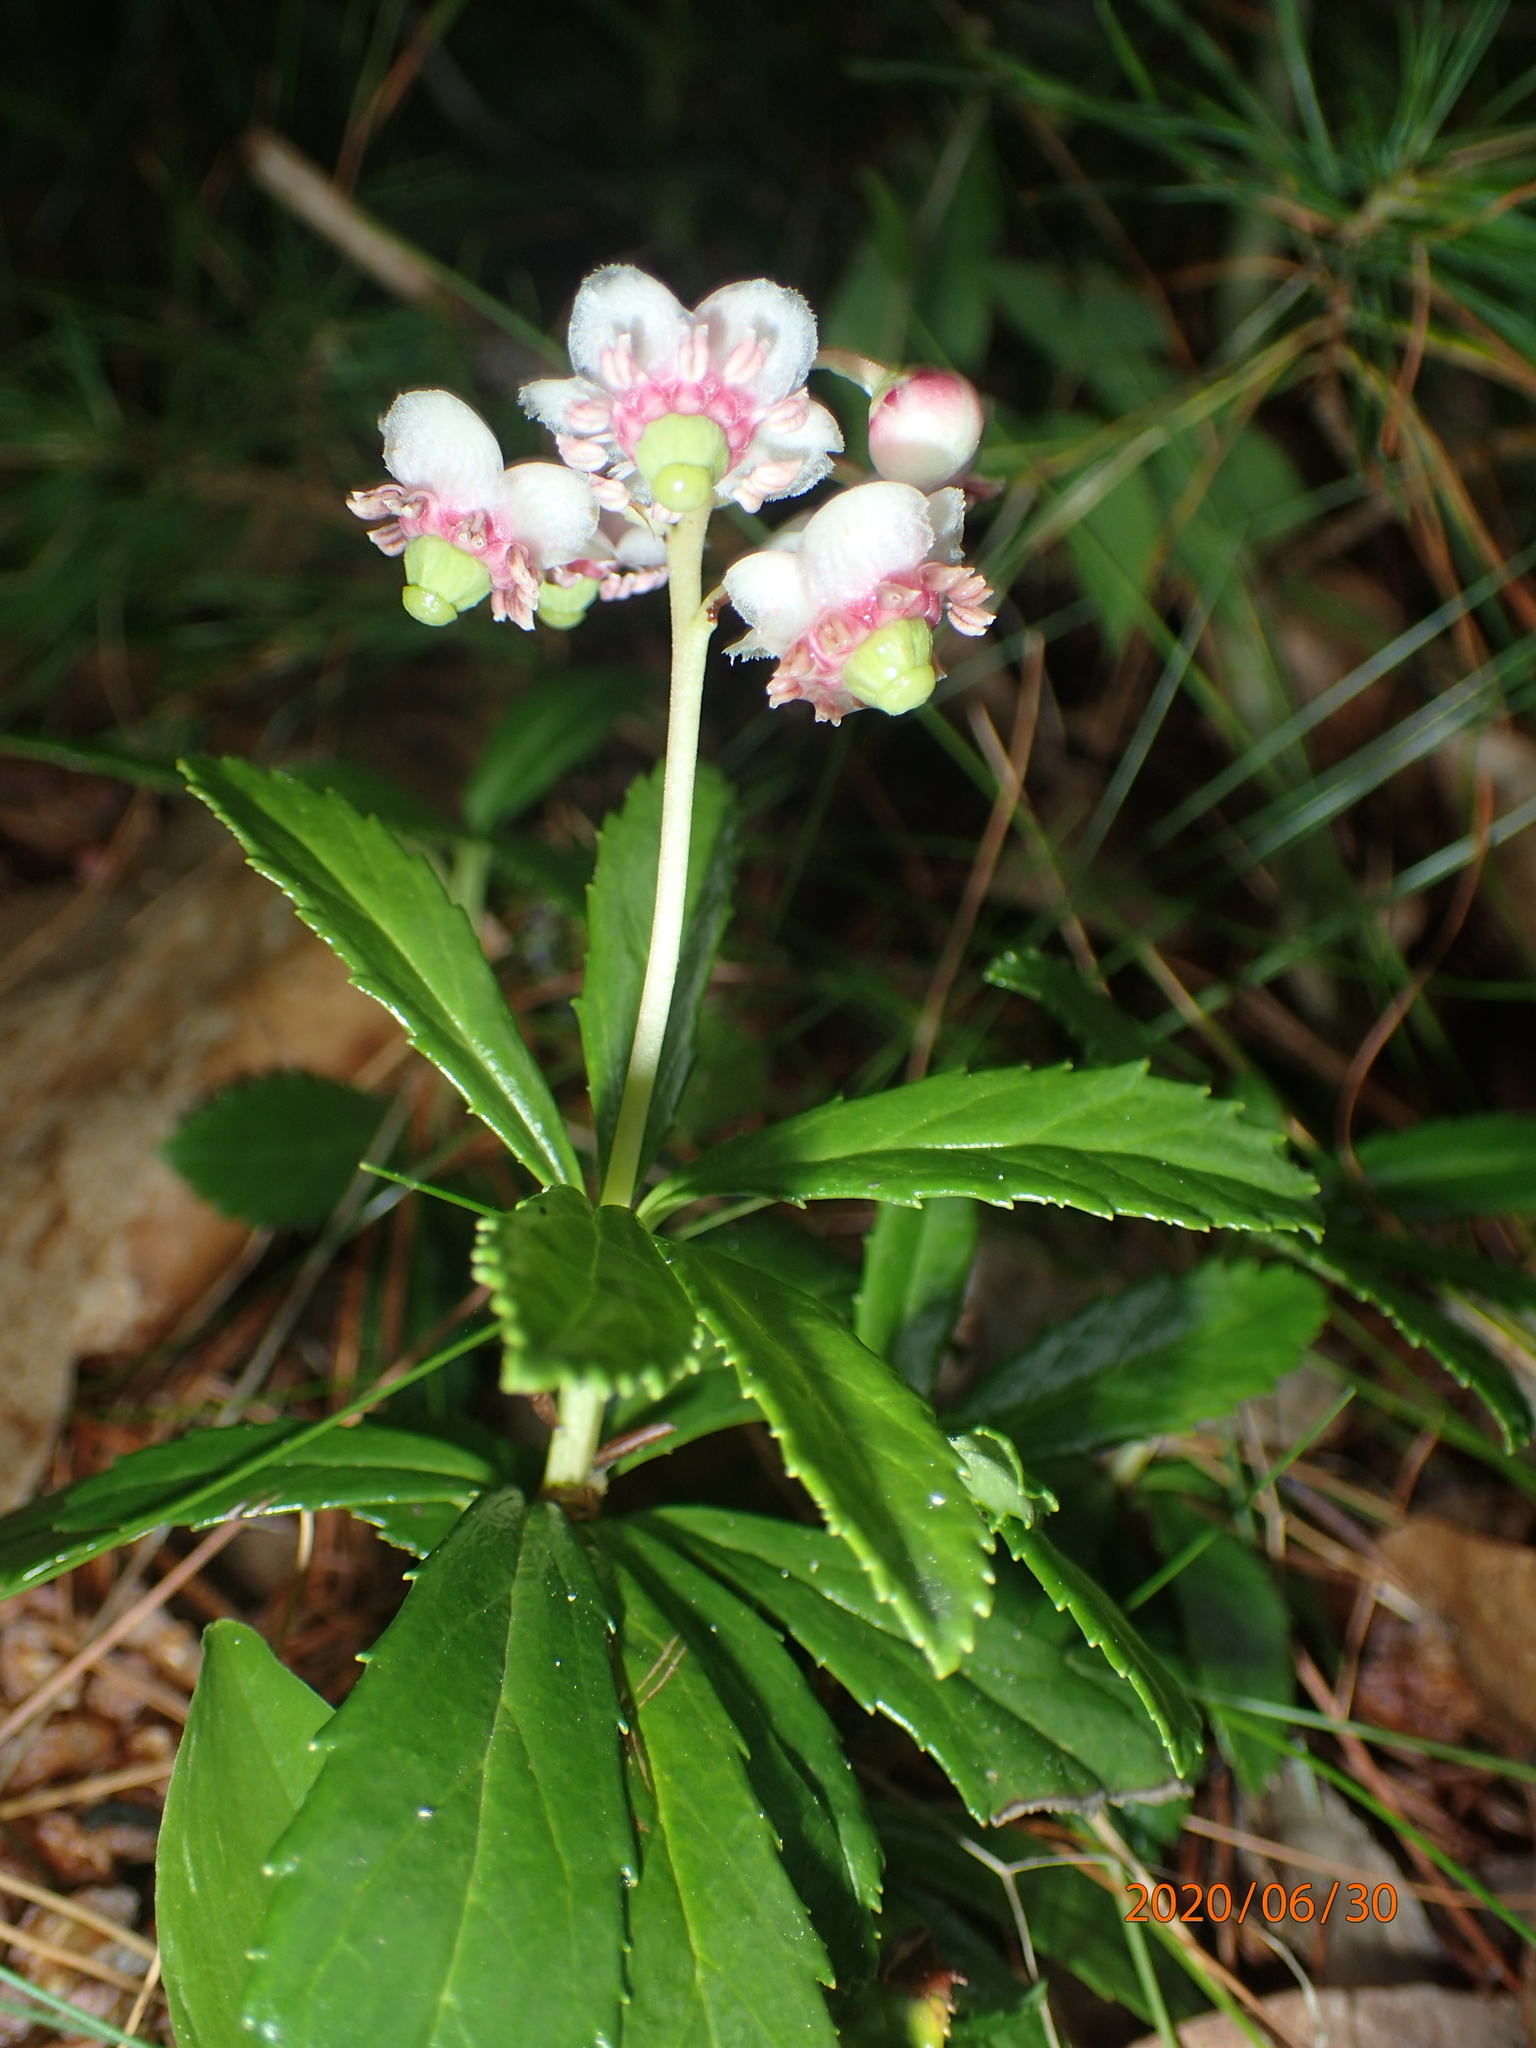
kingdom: Plantae
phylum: Tracheophyta
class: Magnoliopsida
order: Ericales
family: Ericaceae
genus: Chimaphila
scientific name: Chimaphila umbellata
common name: Pipsissewa
